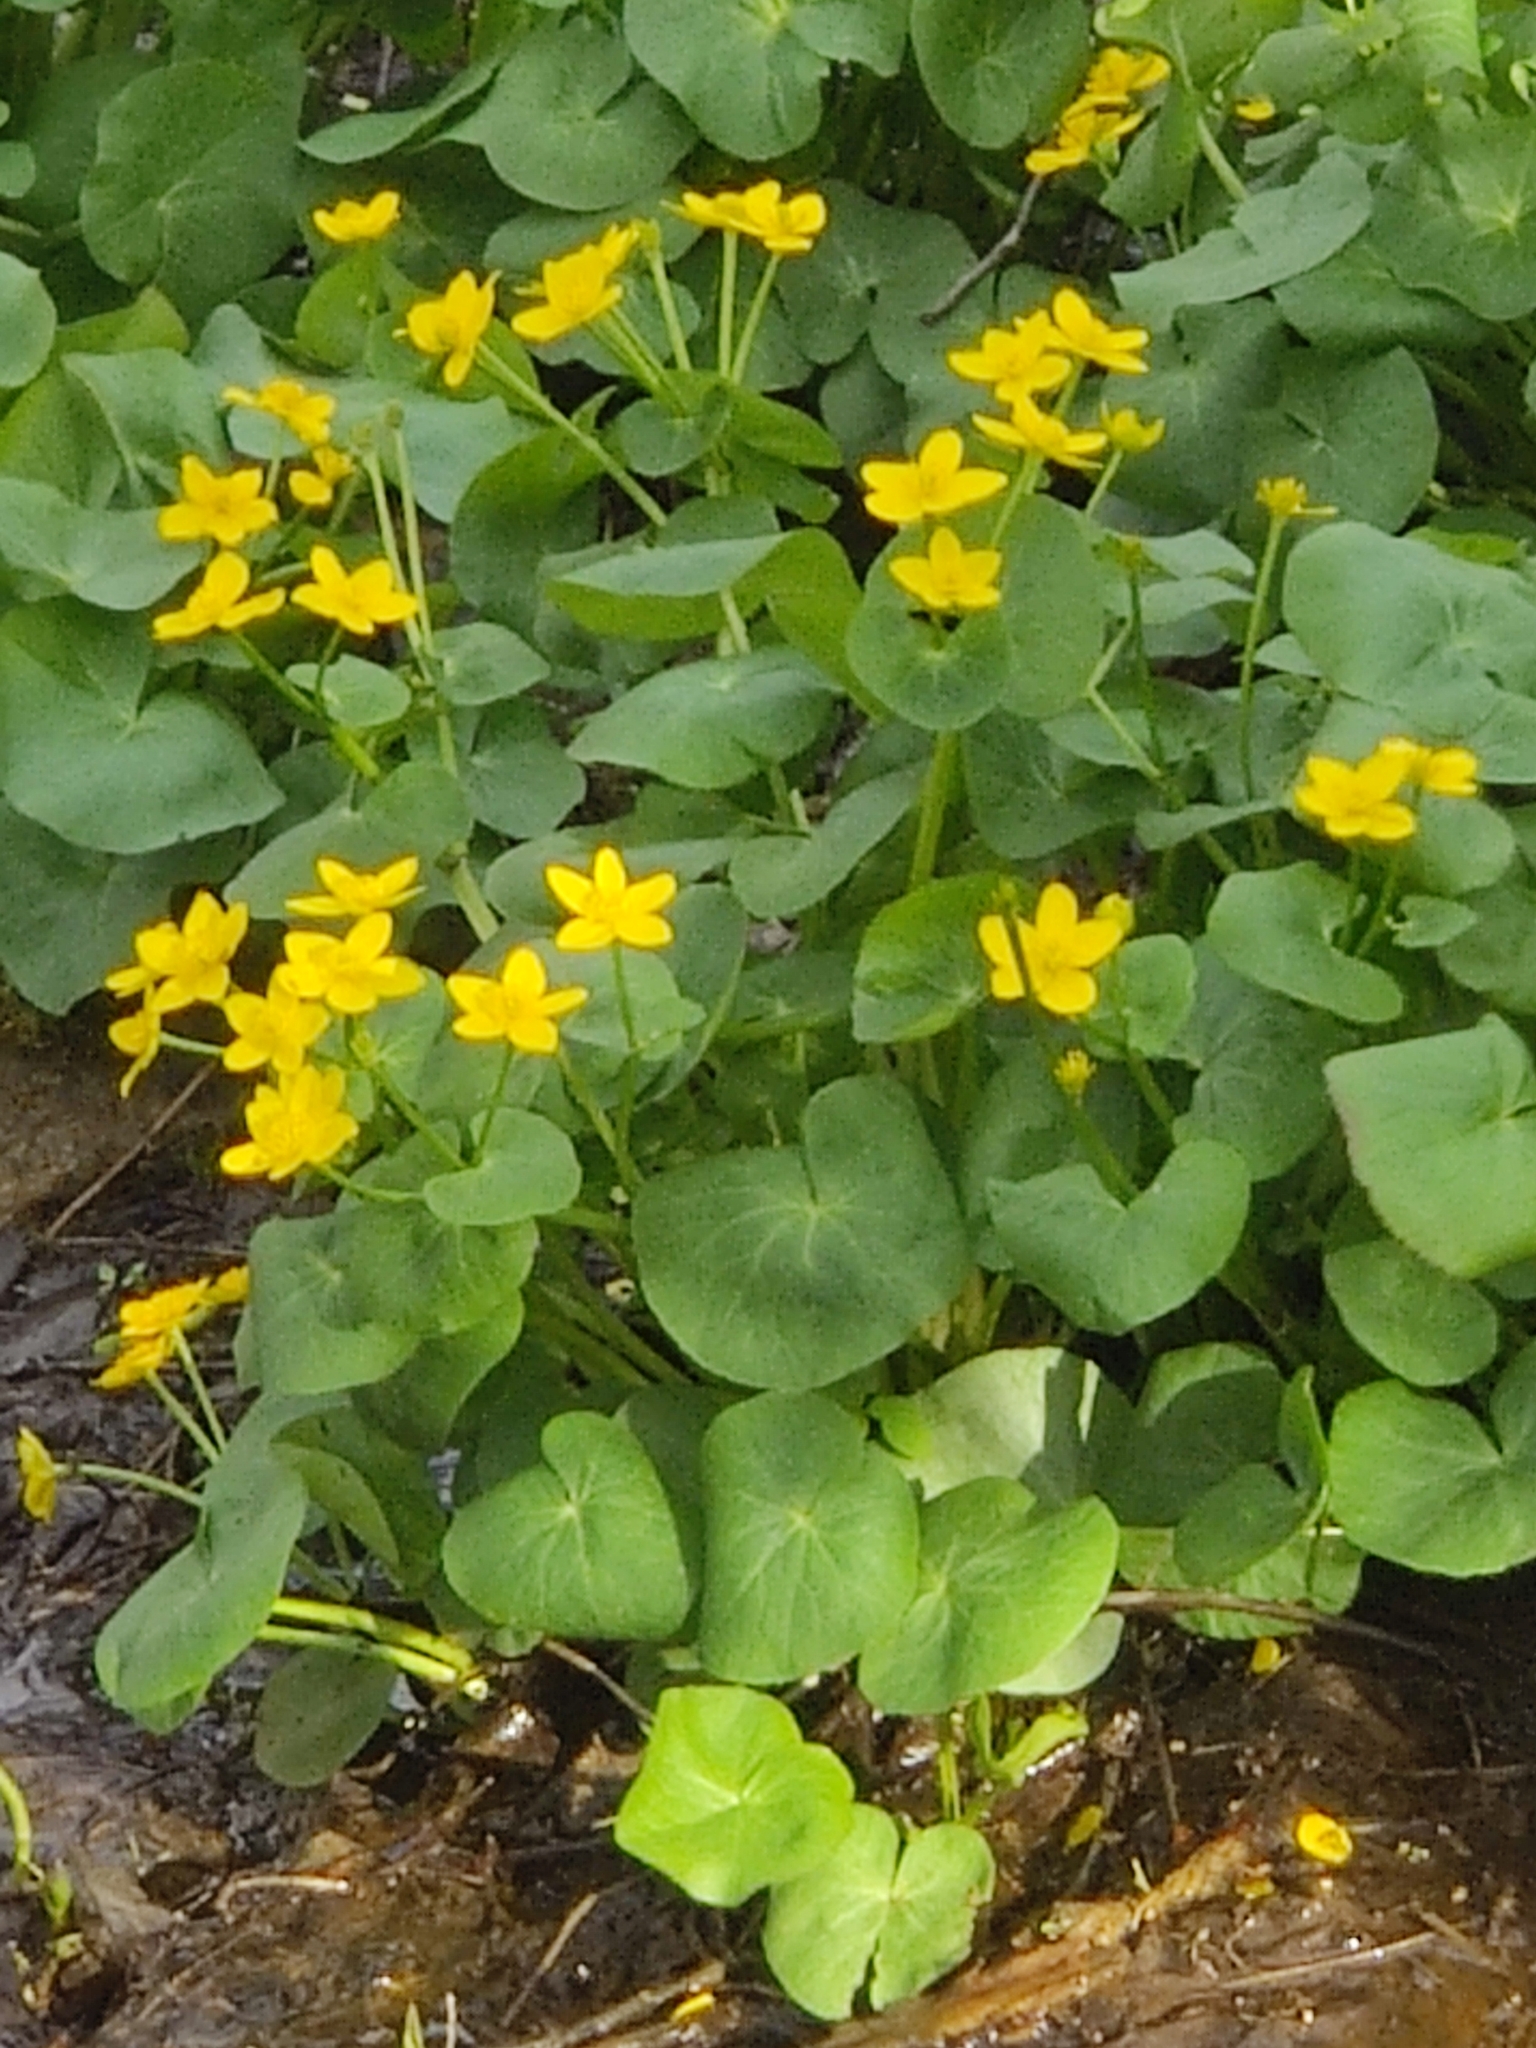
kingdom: Plantae
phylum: Tracheophyta
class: Magnoliopsida
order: Ranunculales
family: Ranunculaceae
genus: Caltha
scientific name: Caltha palustris
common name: Marsh marigold
